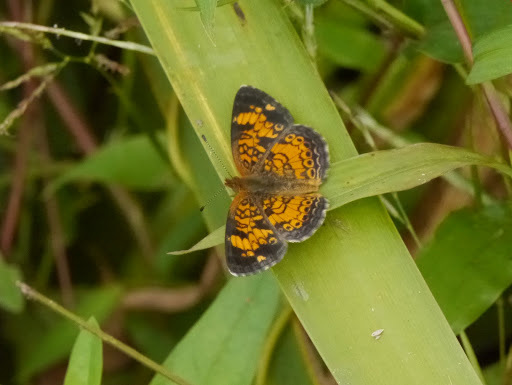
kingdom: Animalia
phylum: Arthropoda
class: Insecta
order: Lepidoptera
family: Nymphalidae
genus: Phyciodes
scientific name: Phyciodes tharos
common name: Pearl crescent
